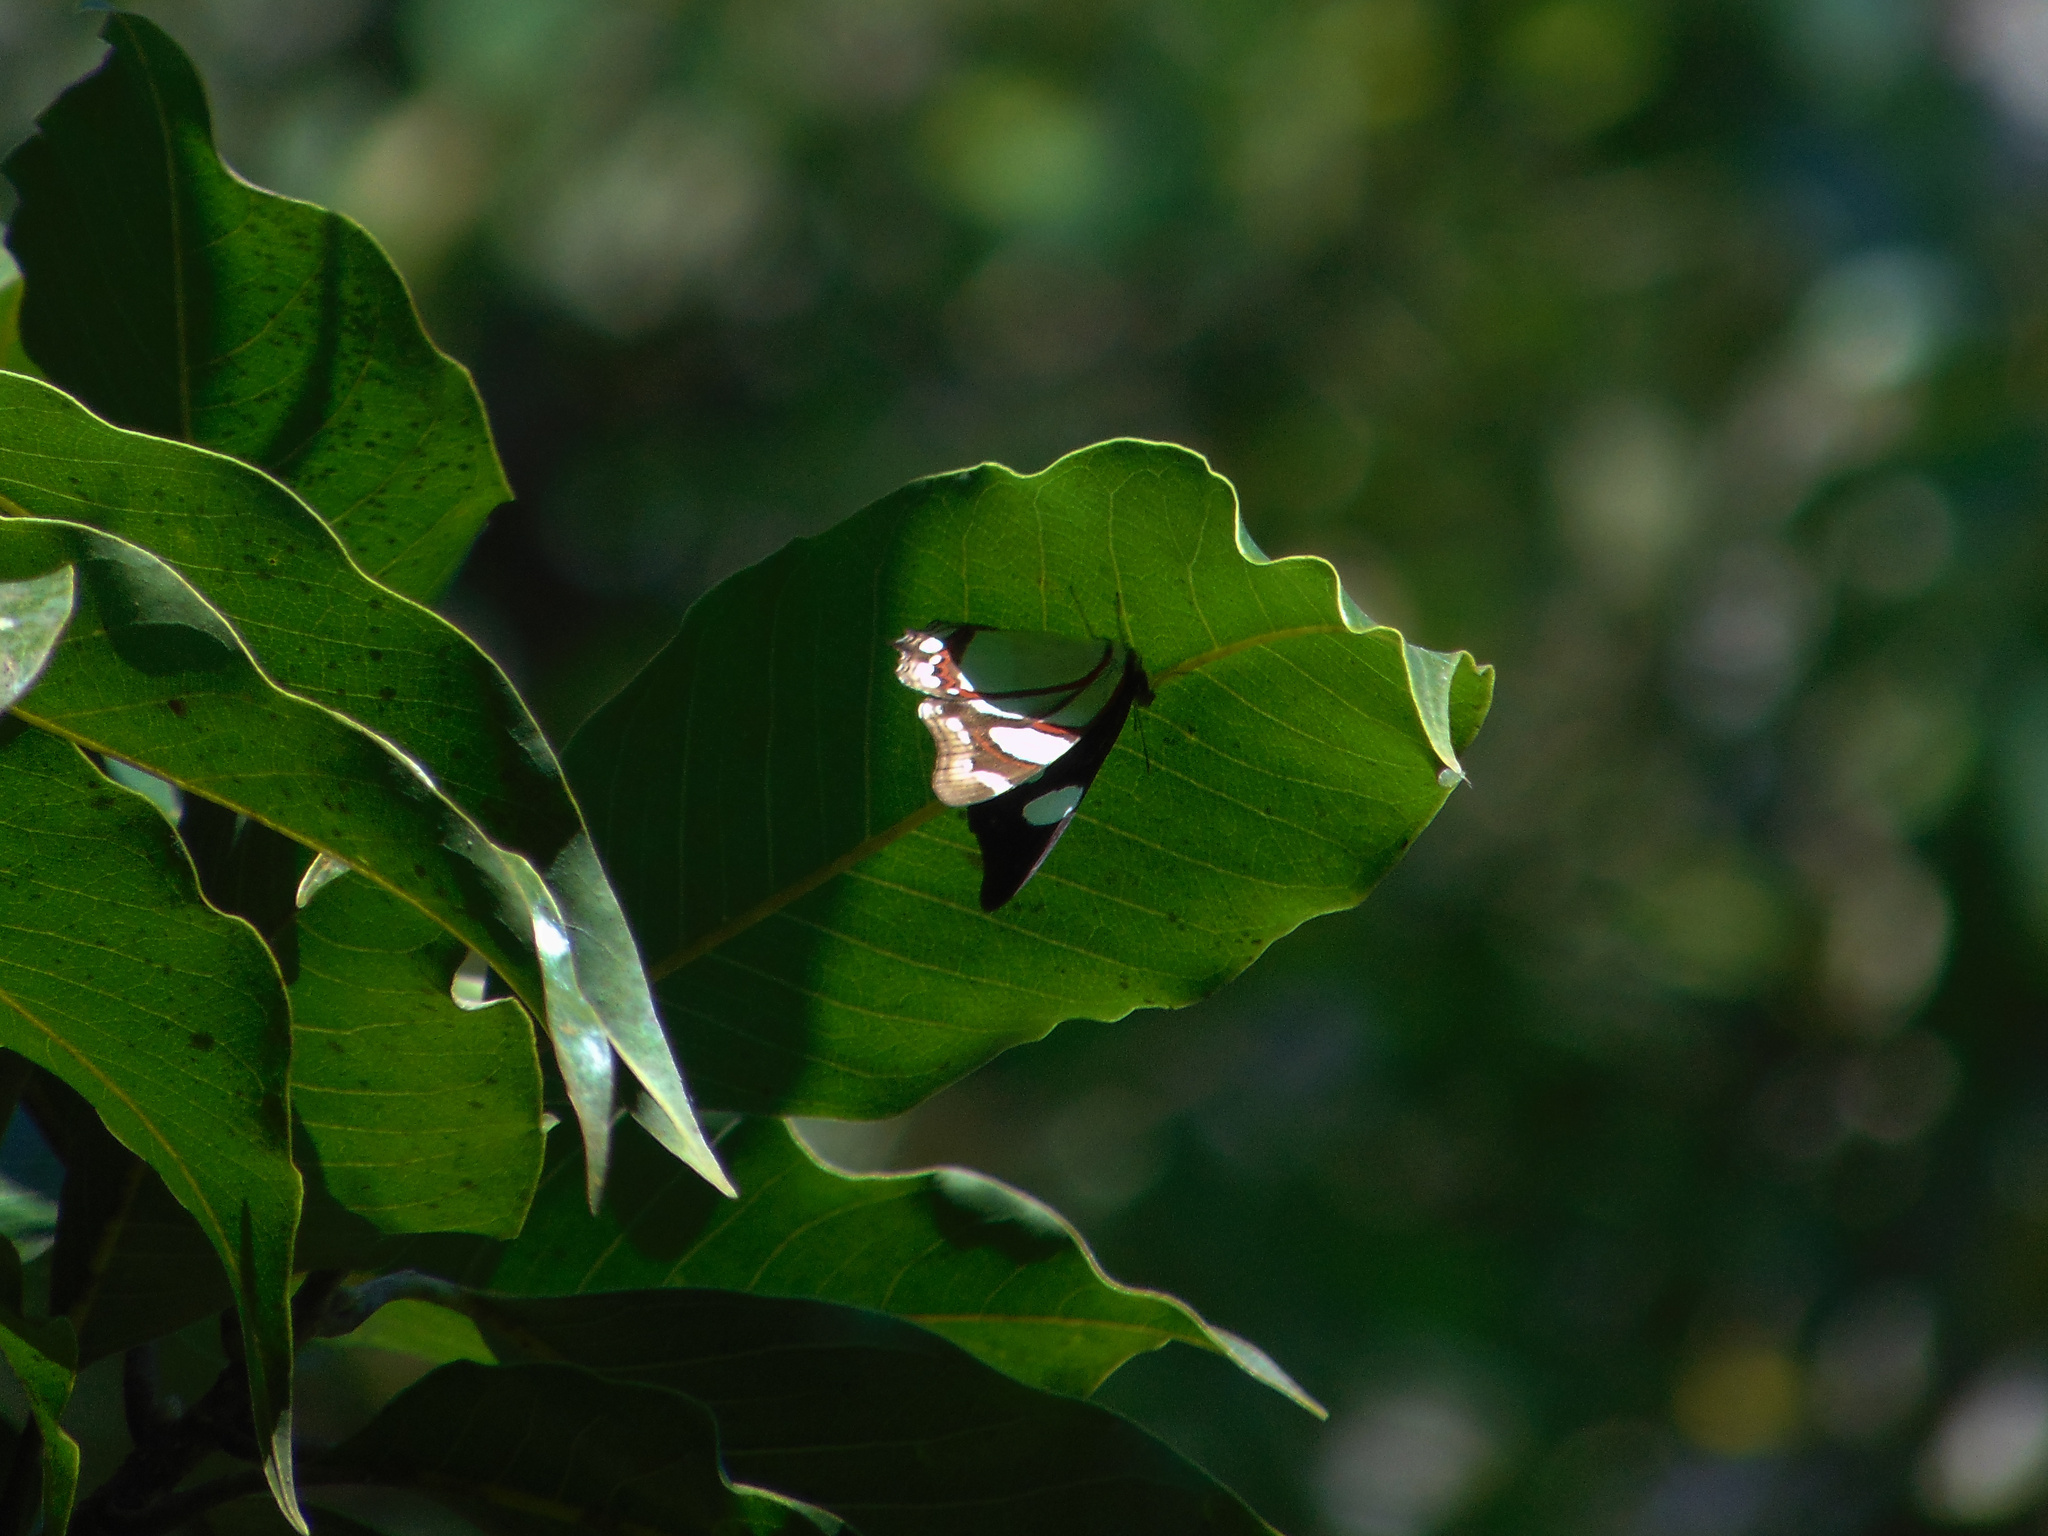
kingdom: Animalia
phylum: Arthropoda
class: Insecta
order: Lepidoptera
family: Nymphalidae
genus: Pyrrhogyra
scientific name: Pyrrhogyra neaerea
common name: Leading red-ring
